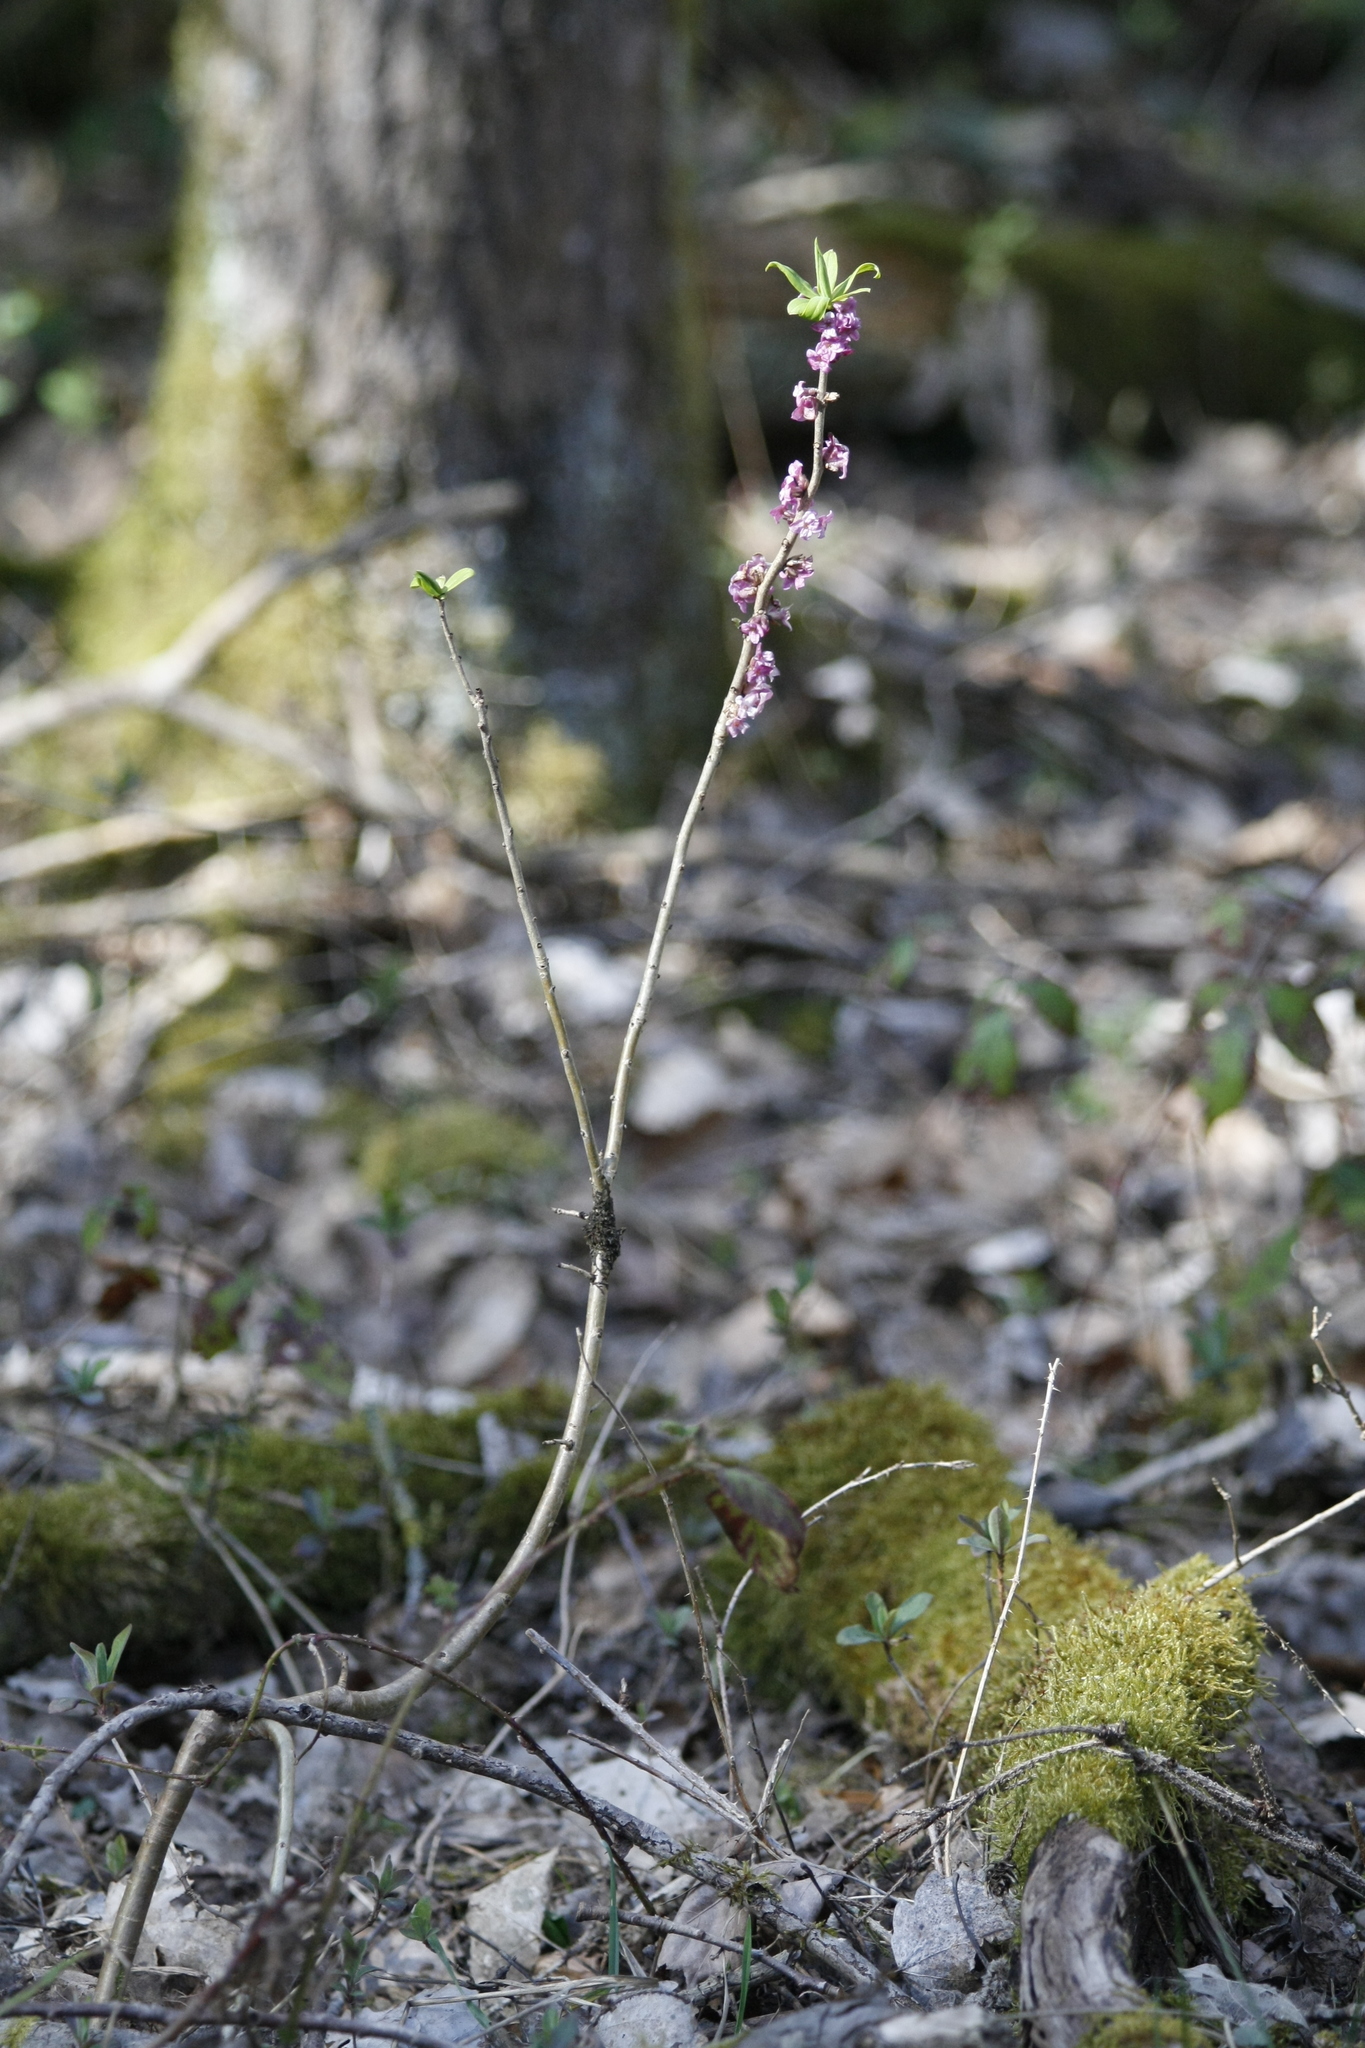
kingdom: Plantae
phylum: Tracheophyta
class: Magnoliopsida
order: Malvales
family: Thymelaeaceae
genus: Daphne
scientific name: Daphne mezereum
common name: Mezereon
